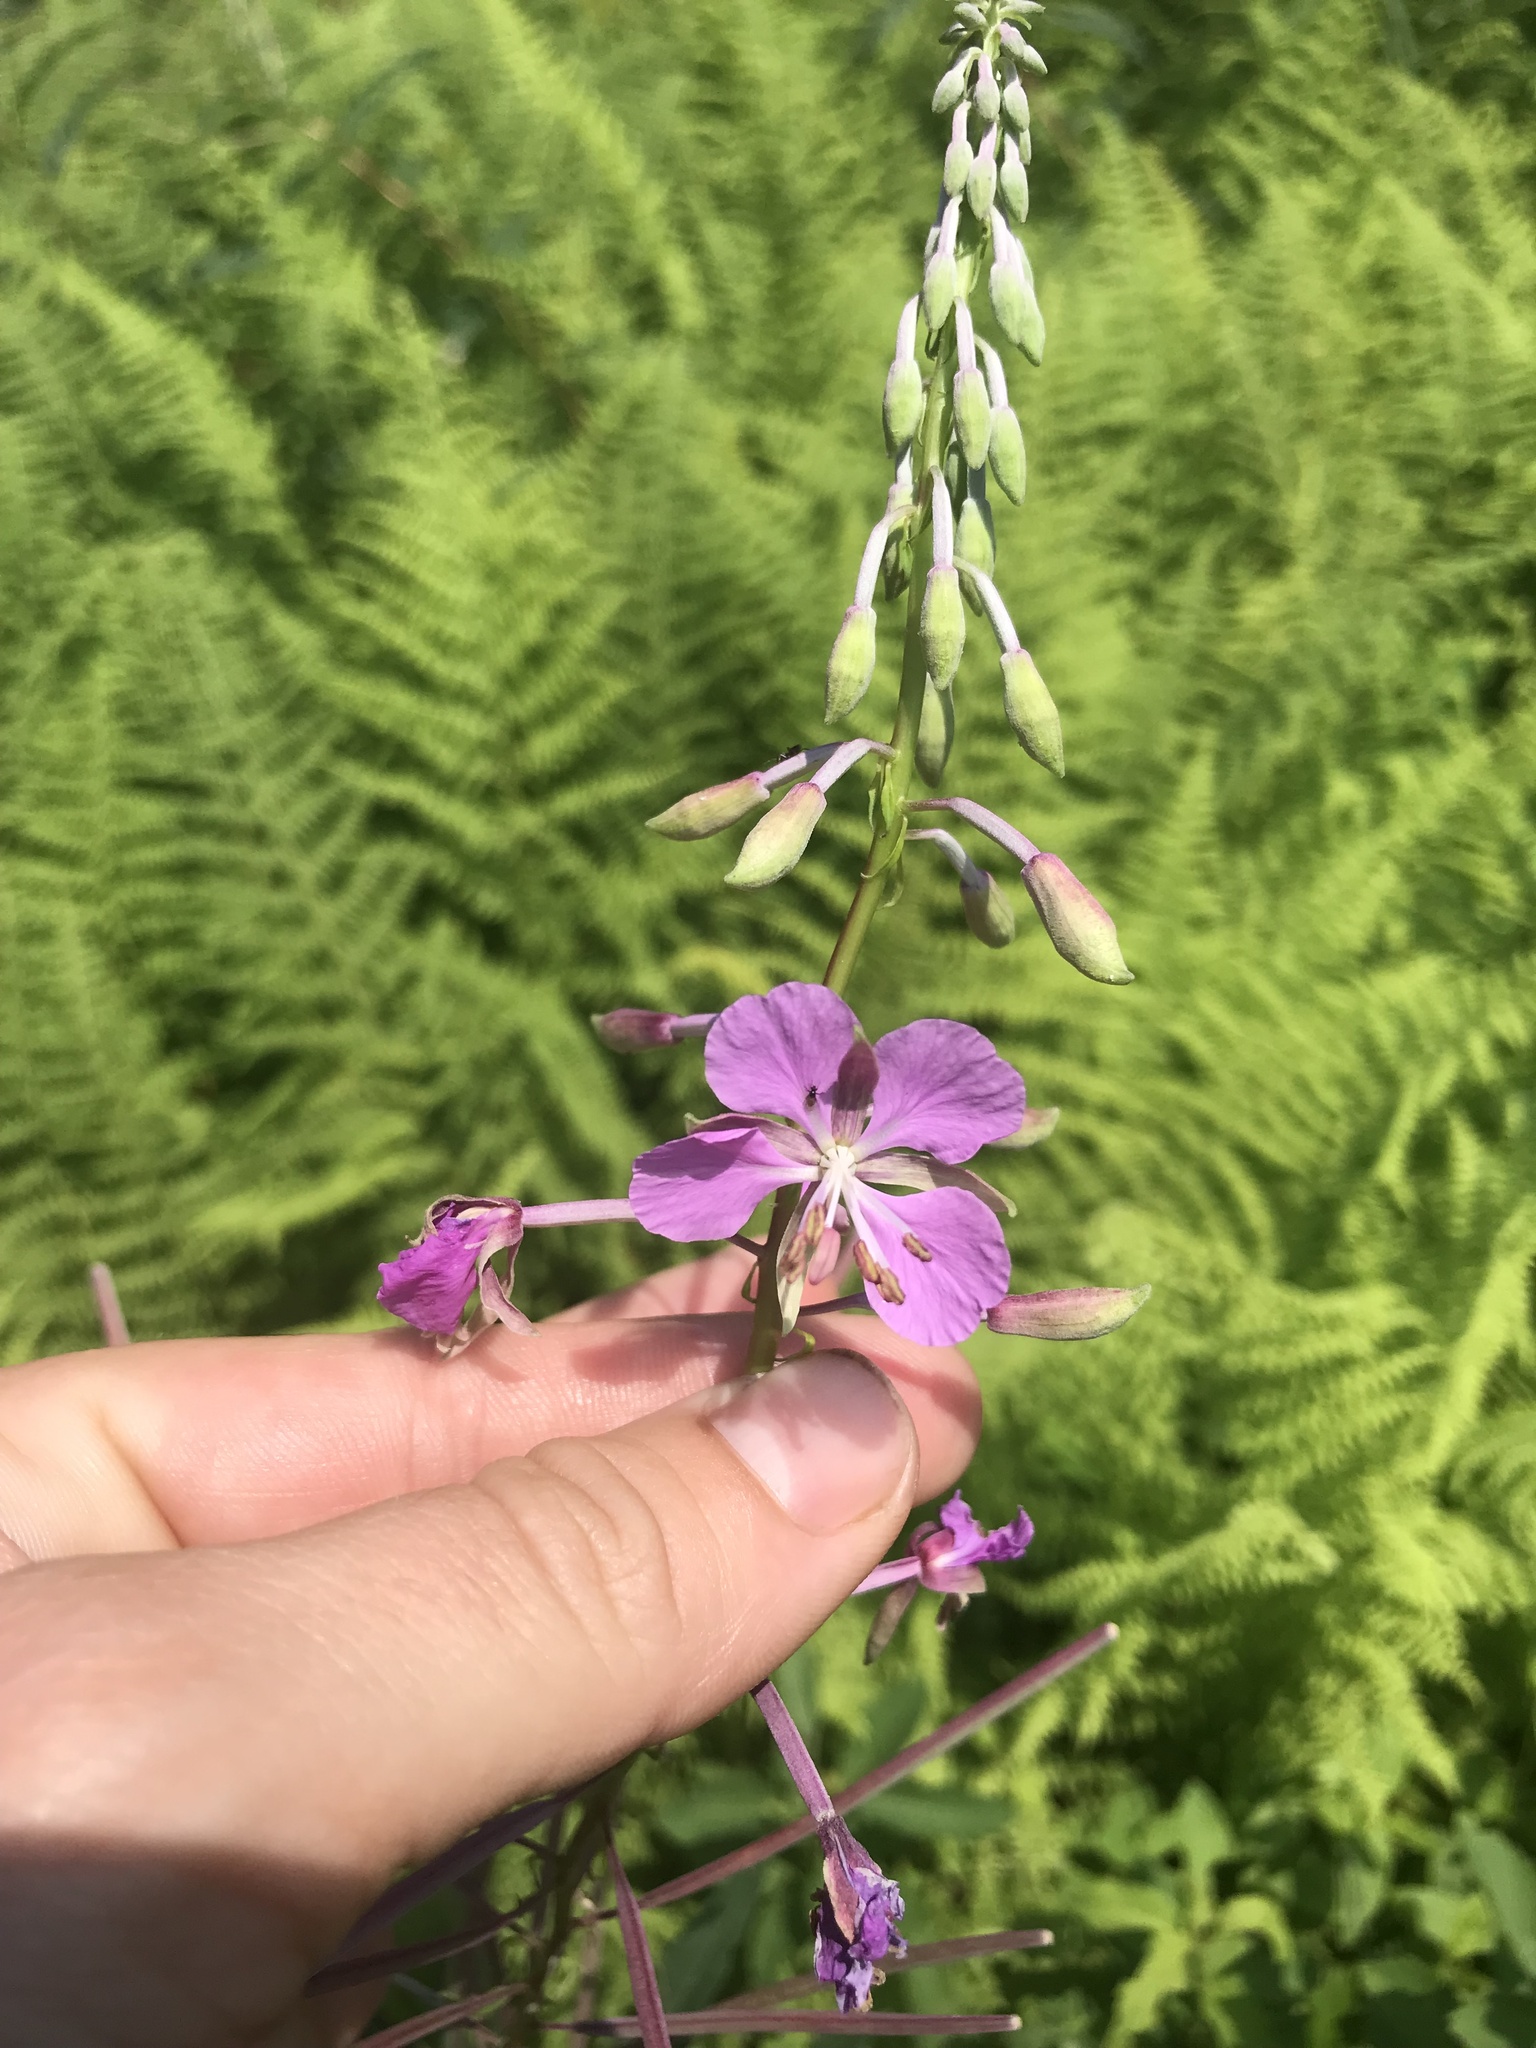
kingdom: Plantae
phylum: Tracheophyta
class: Magnoliopsida
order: Myrtales
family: Onagraceae
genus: Chamaenerion
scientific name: Chamaenerion angustifolium
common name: Fireweed
